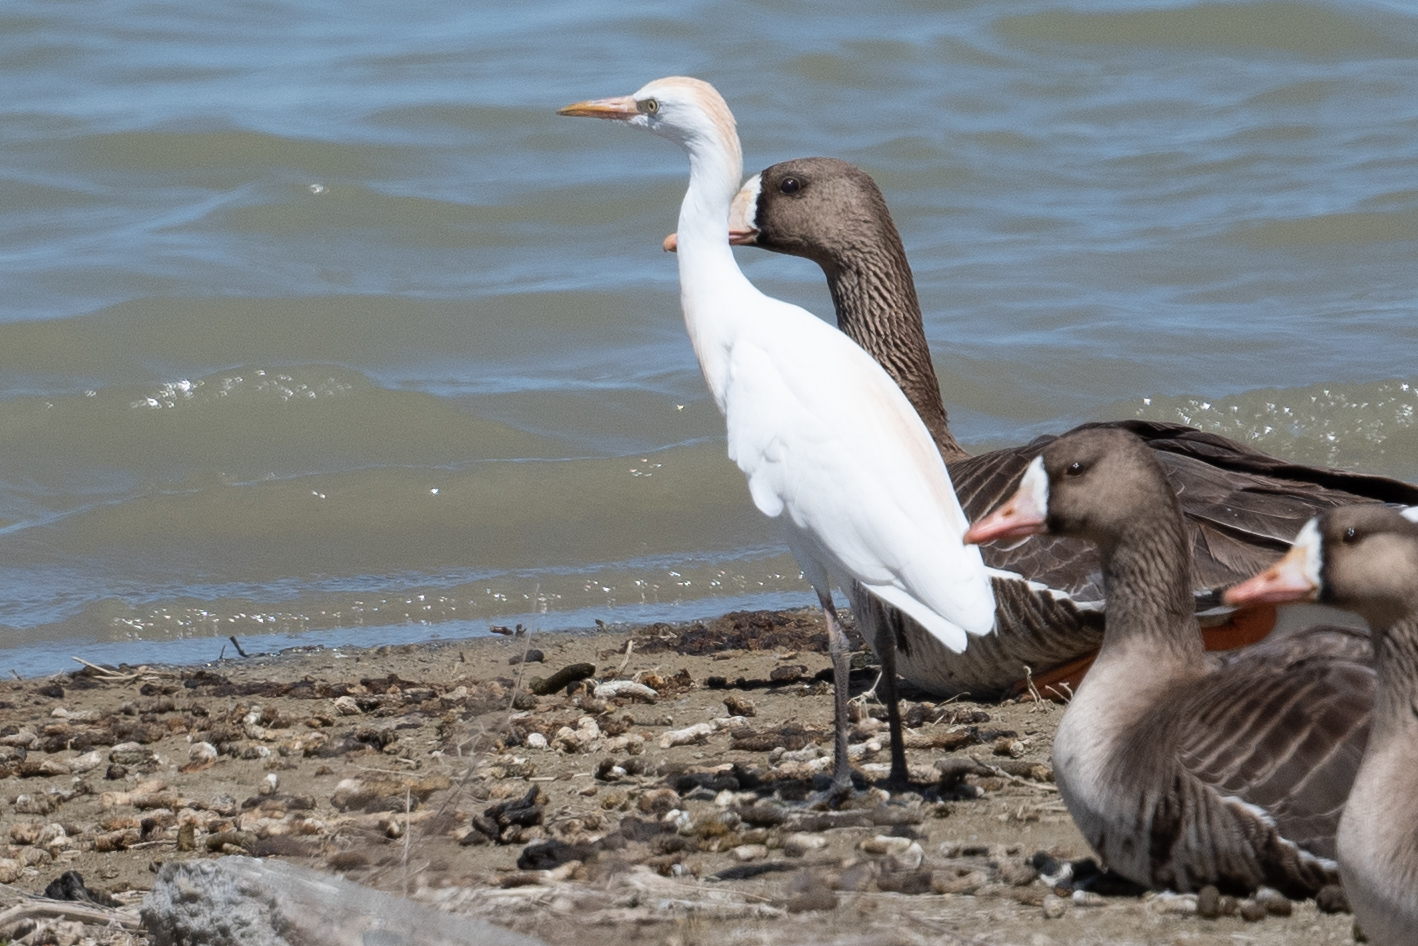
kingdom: Animalia
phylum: Chordata
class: Aves
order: Pelecaniformes
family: Ardeidae
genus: Bubulcus
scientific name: Bubulcus ibis
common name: Cattle egret
